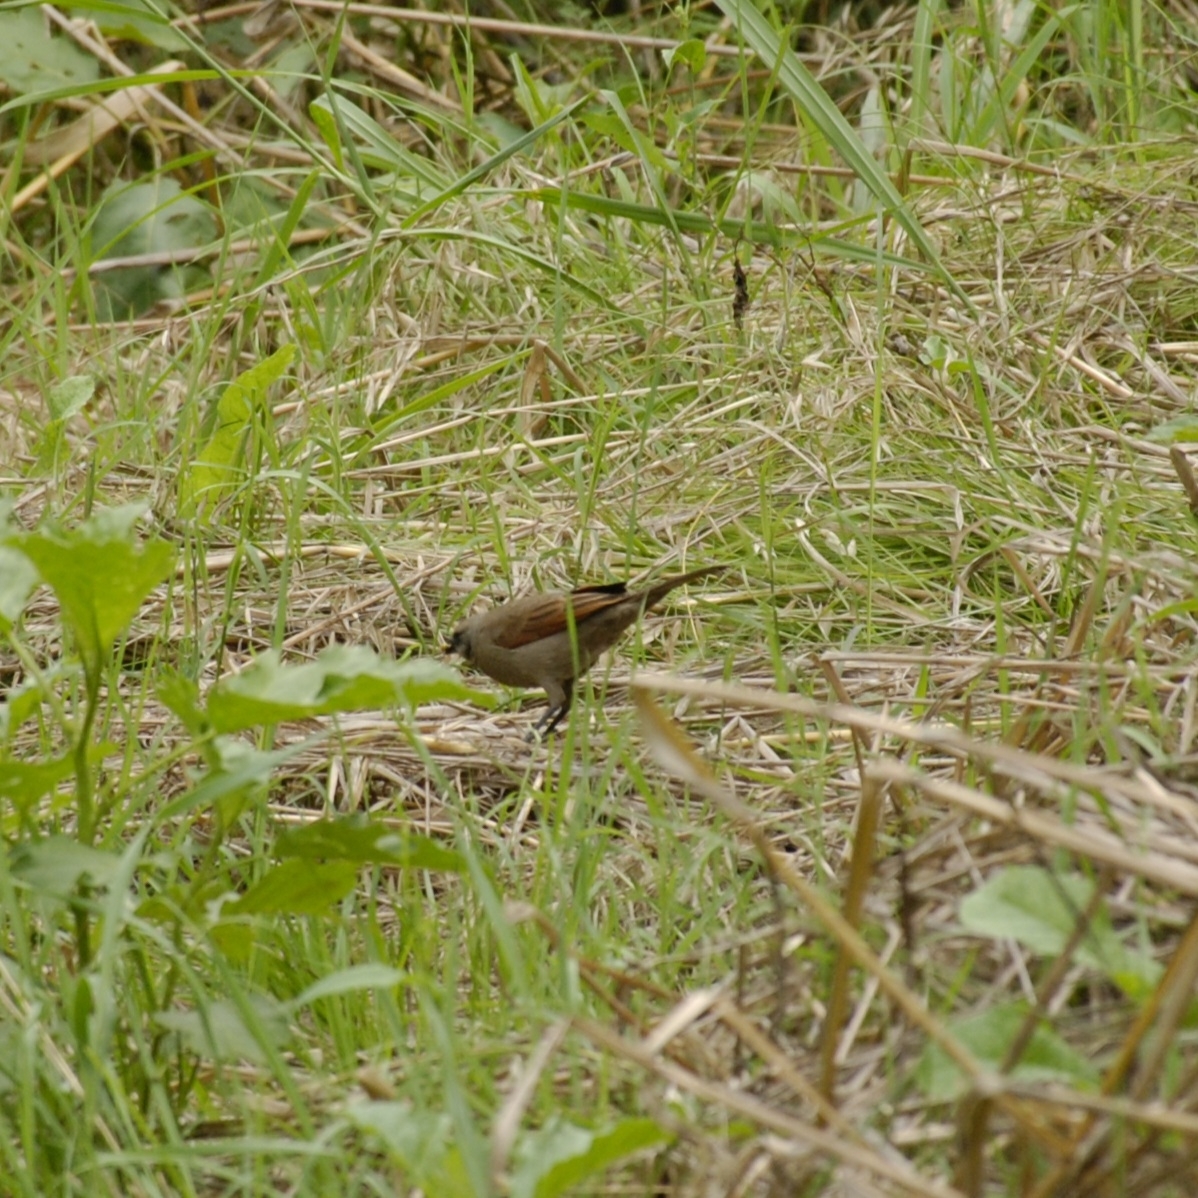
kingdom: Animalia
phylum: Chordata
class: Aves
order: Passeriformes
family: Icteridae
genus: Agelaioides
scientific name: Agelaioides badius
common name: Baywing
